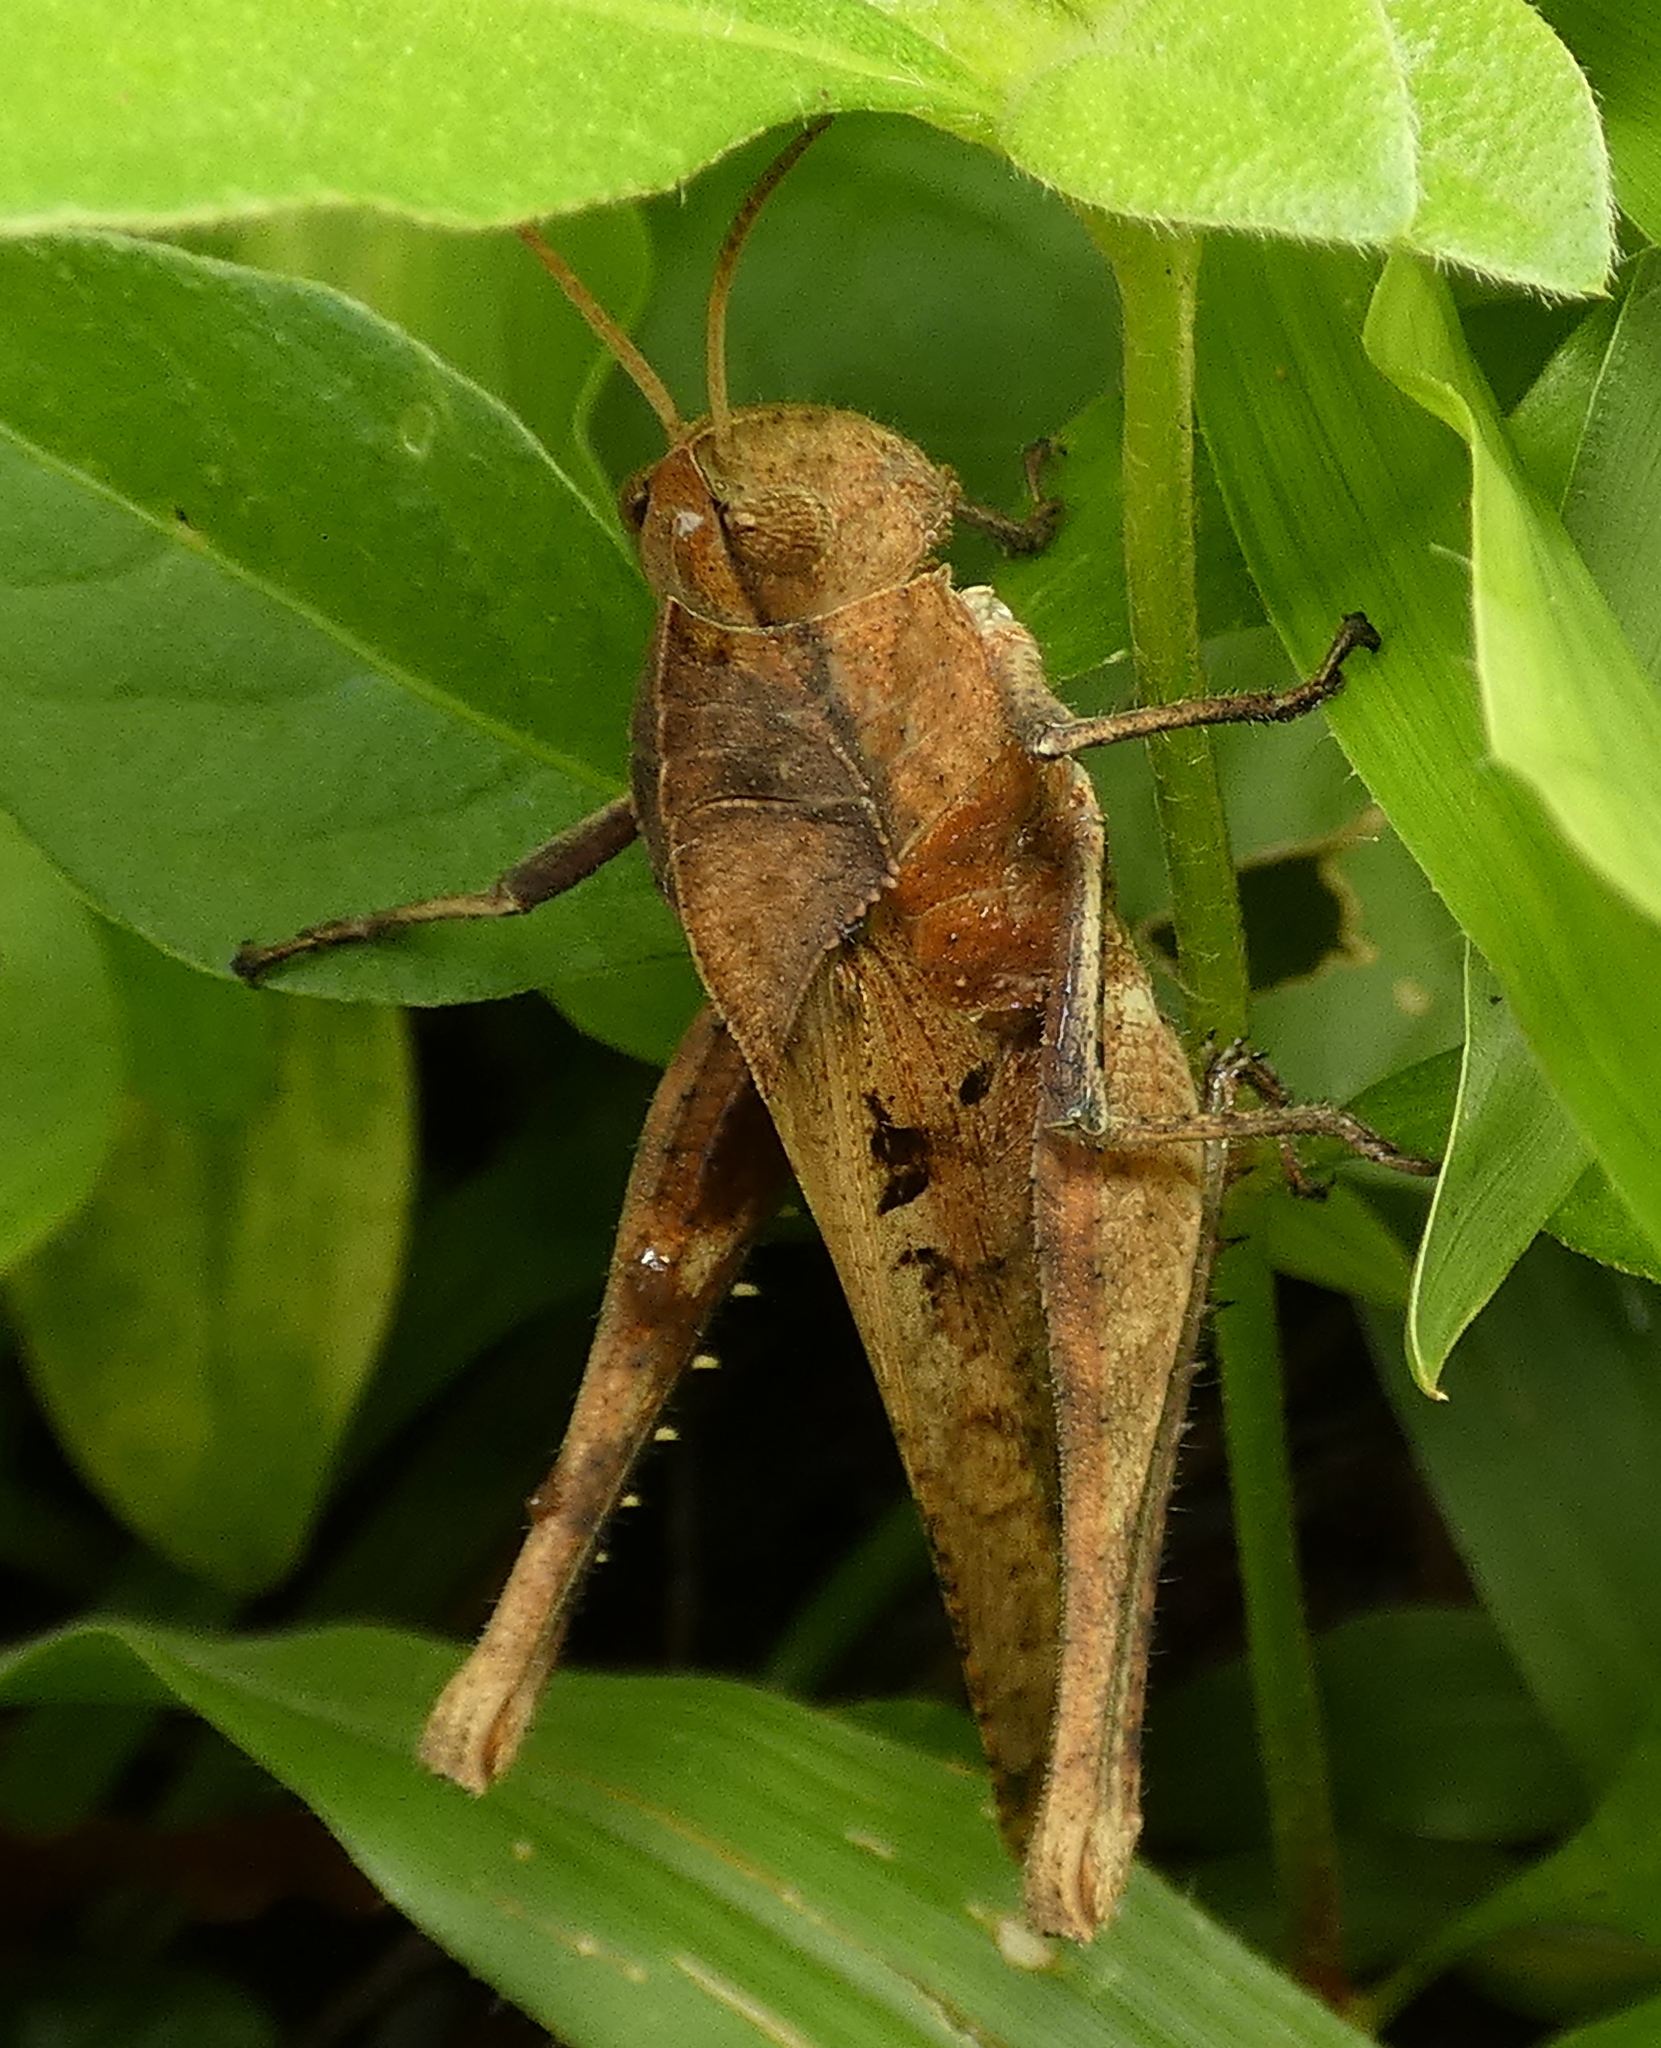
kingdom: Animalia
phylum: Arthropoda
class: Insecta
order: Orthoptera
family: Romaleidae
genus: Xyleus
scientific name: Xyleus discoideus
